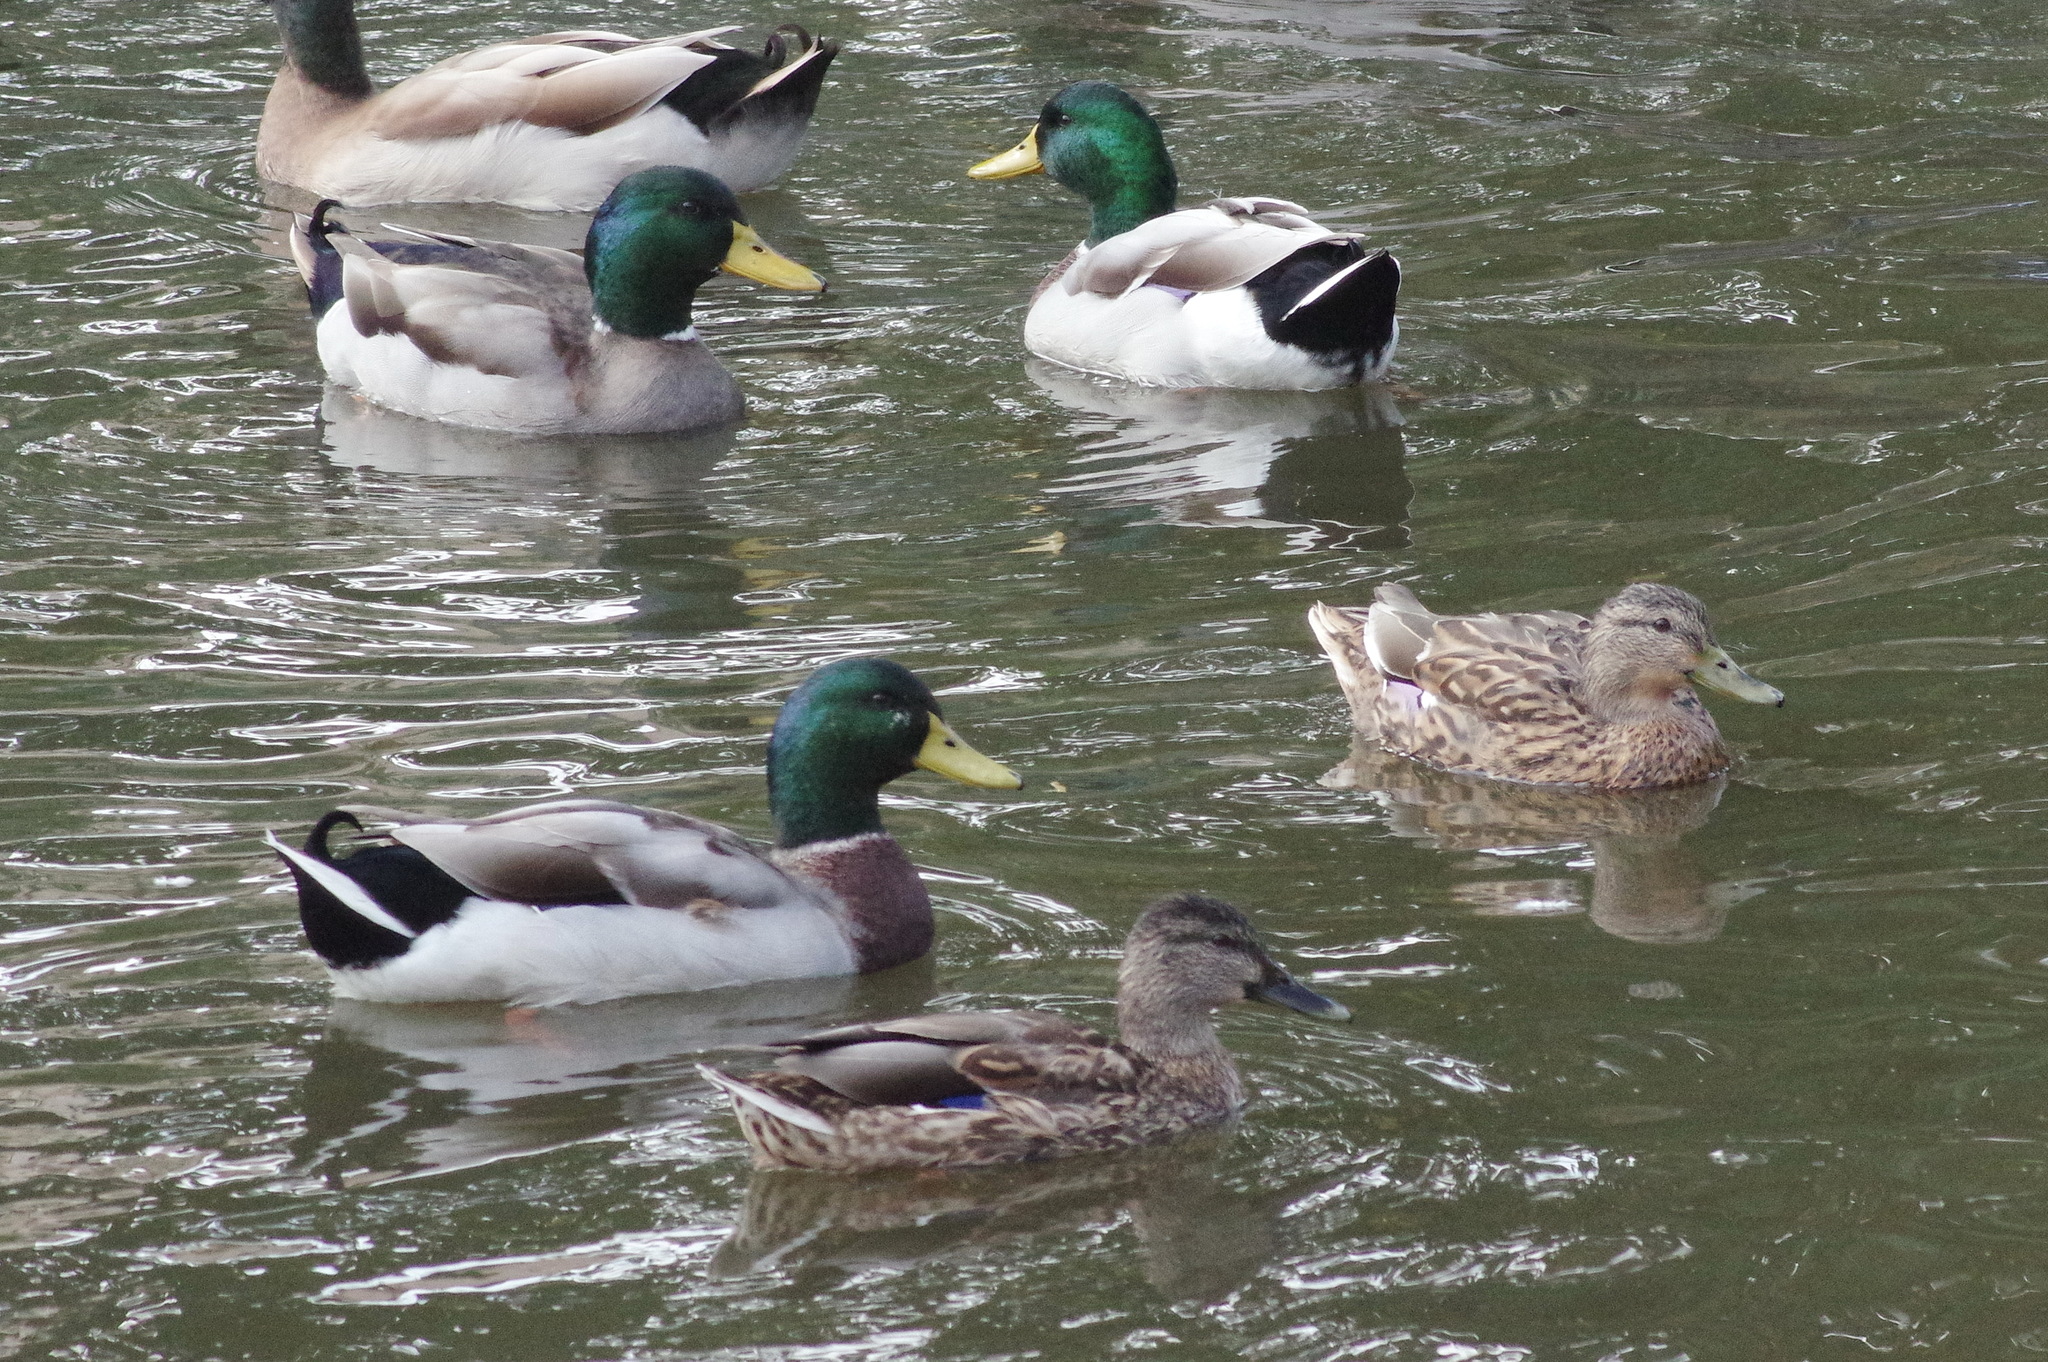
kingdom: Animalia
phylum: Chordata
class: Aves
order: Anseriformes
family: Anatidae
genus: Anas
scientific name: Anas platyrhynchos
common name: Mallard
